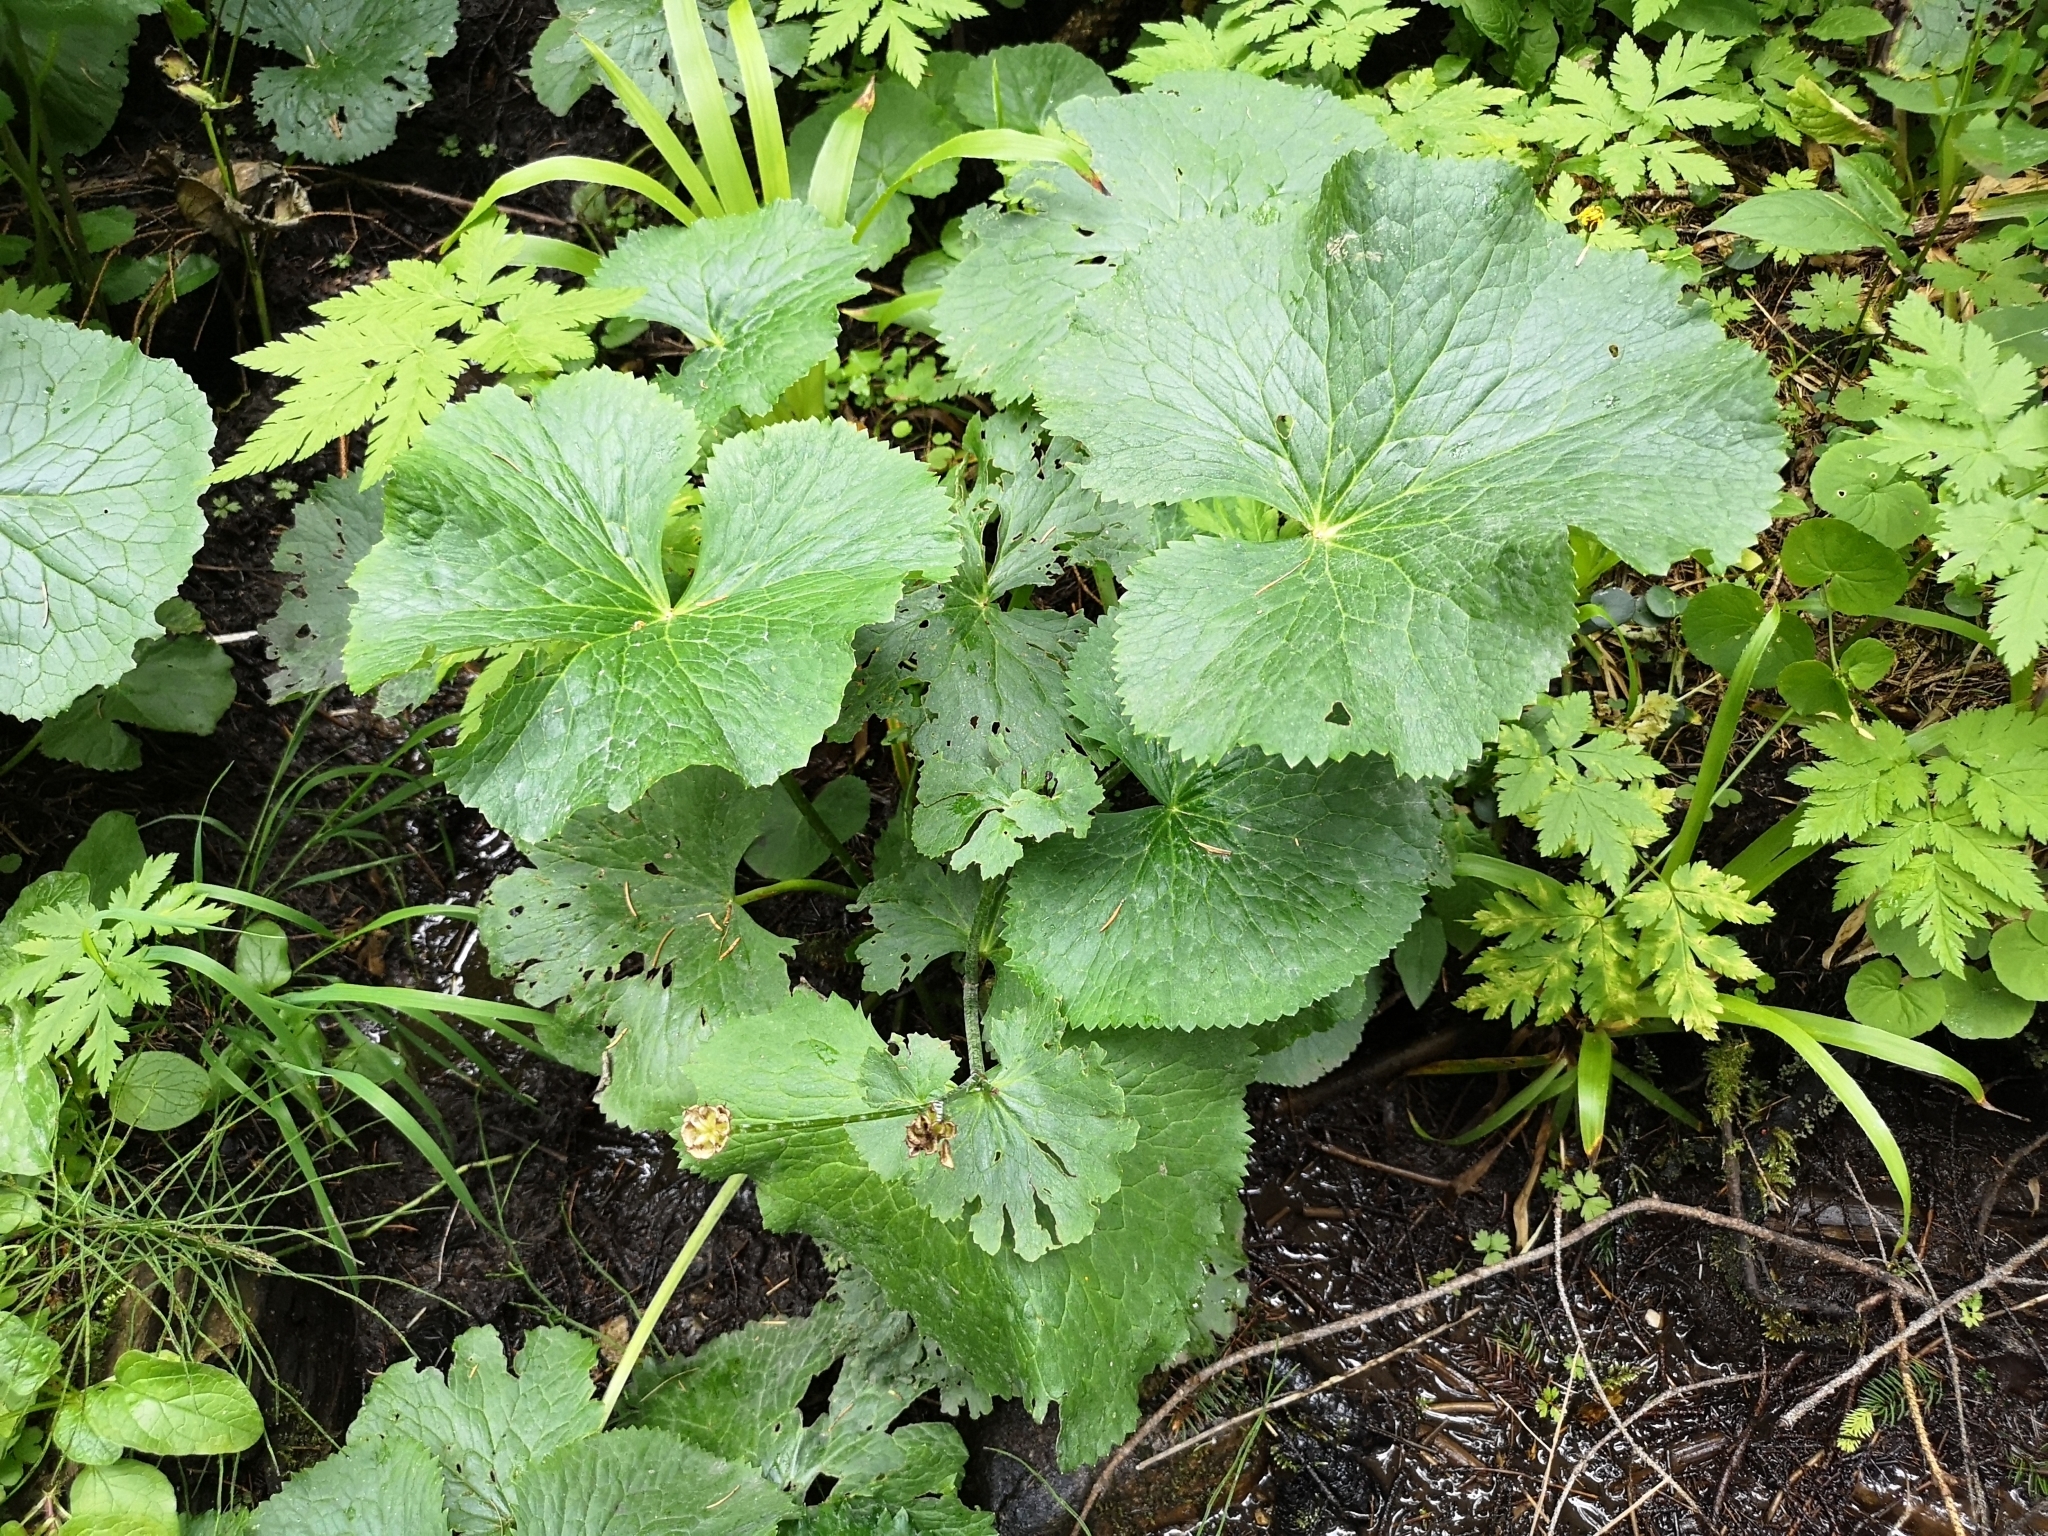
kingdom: Plantae
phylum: Tracheophyta
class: Magnoliopsida
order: Ranunculales
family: Ranunculaceae
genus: Caltha
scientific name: Caltha palustris
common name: Marsh marigold
